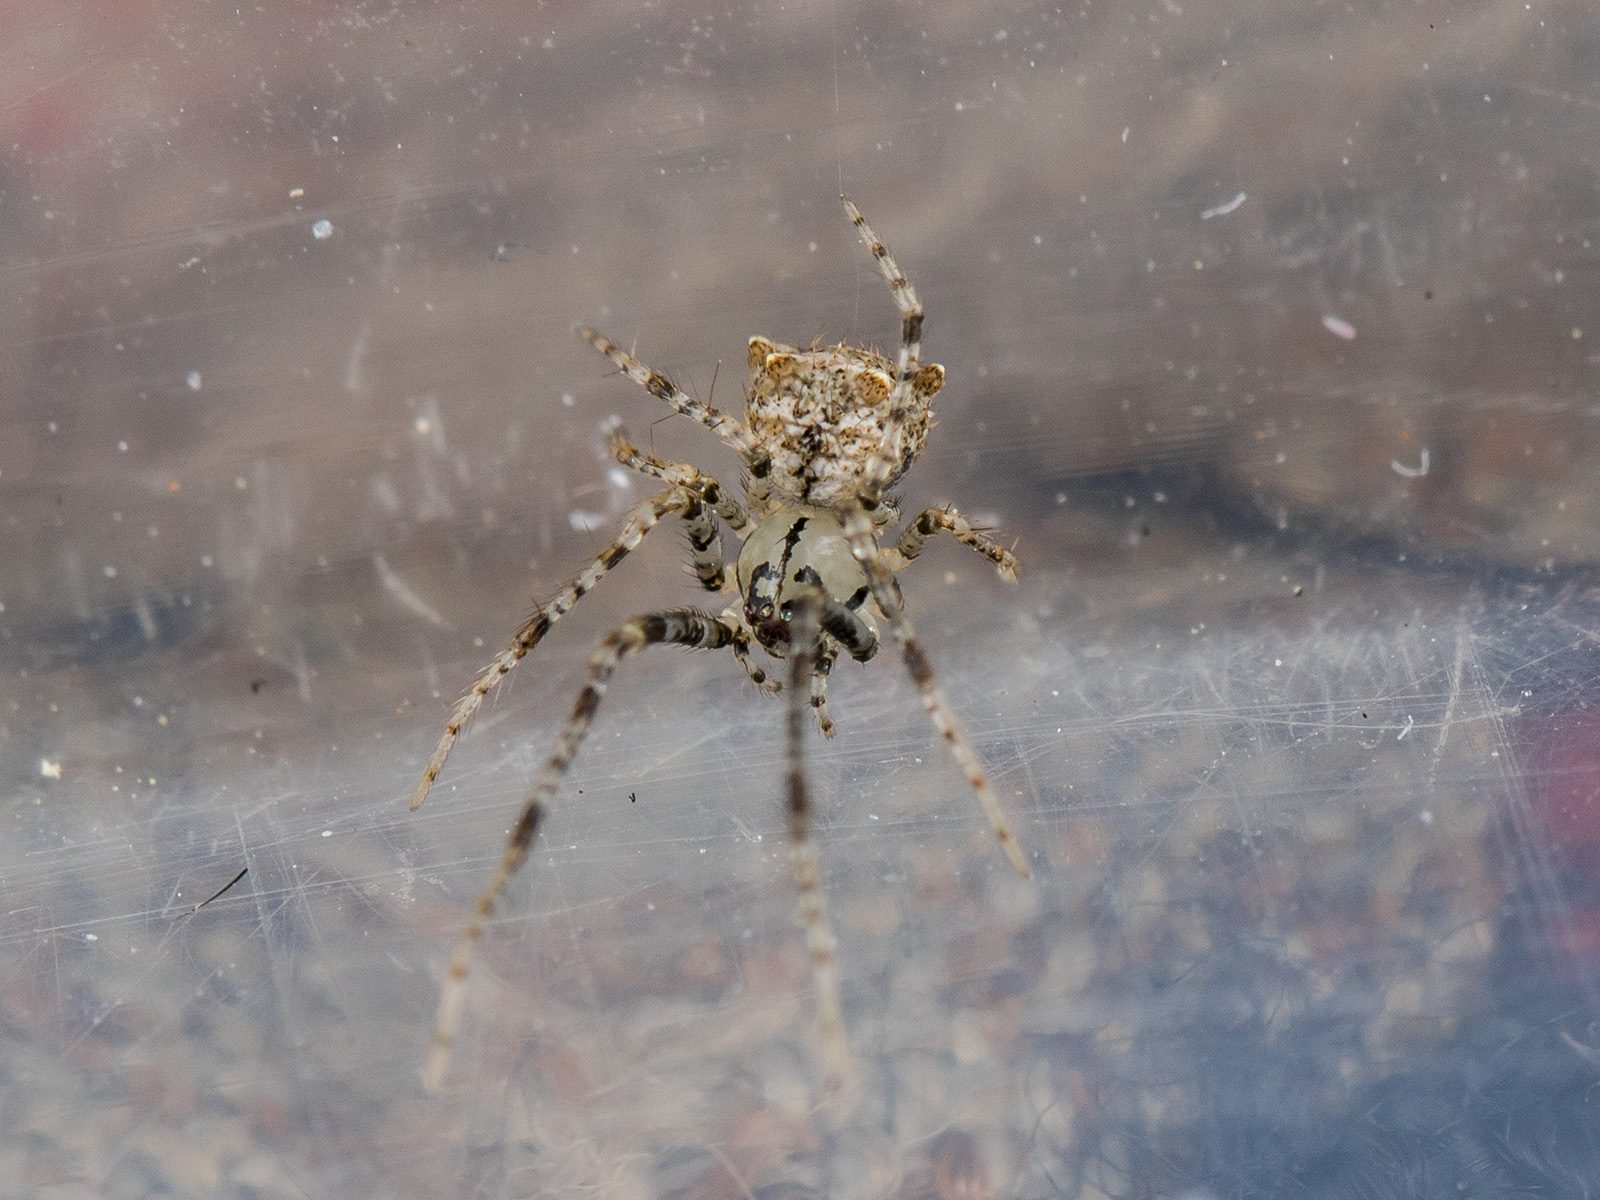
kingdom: Animalia
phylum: Arthropoda
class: Arachnida
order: Araneae
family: Mimetidae
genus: Ero
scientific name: Ero aphana
